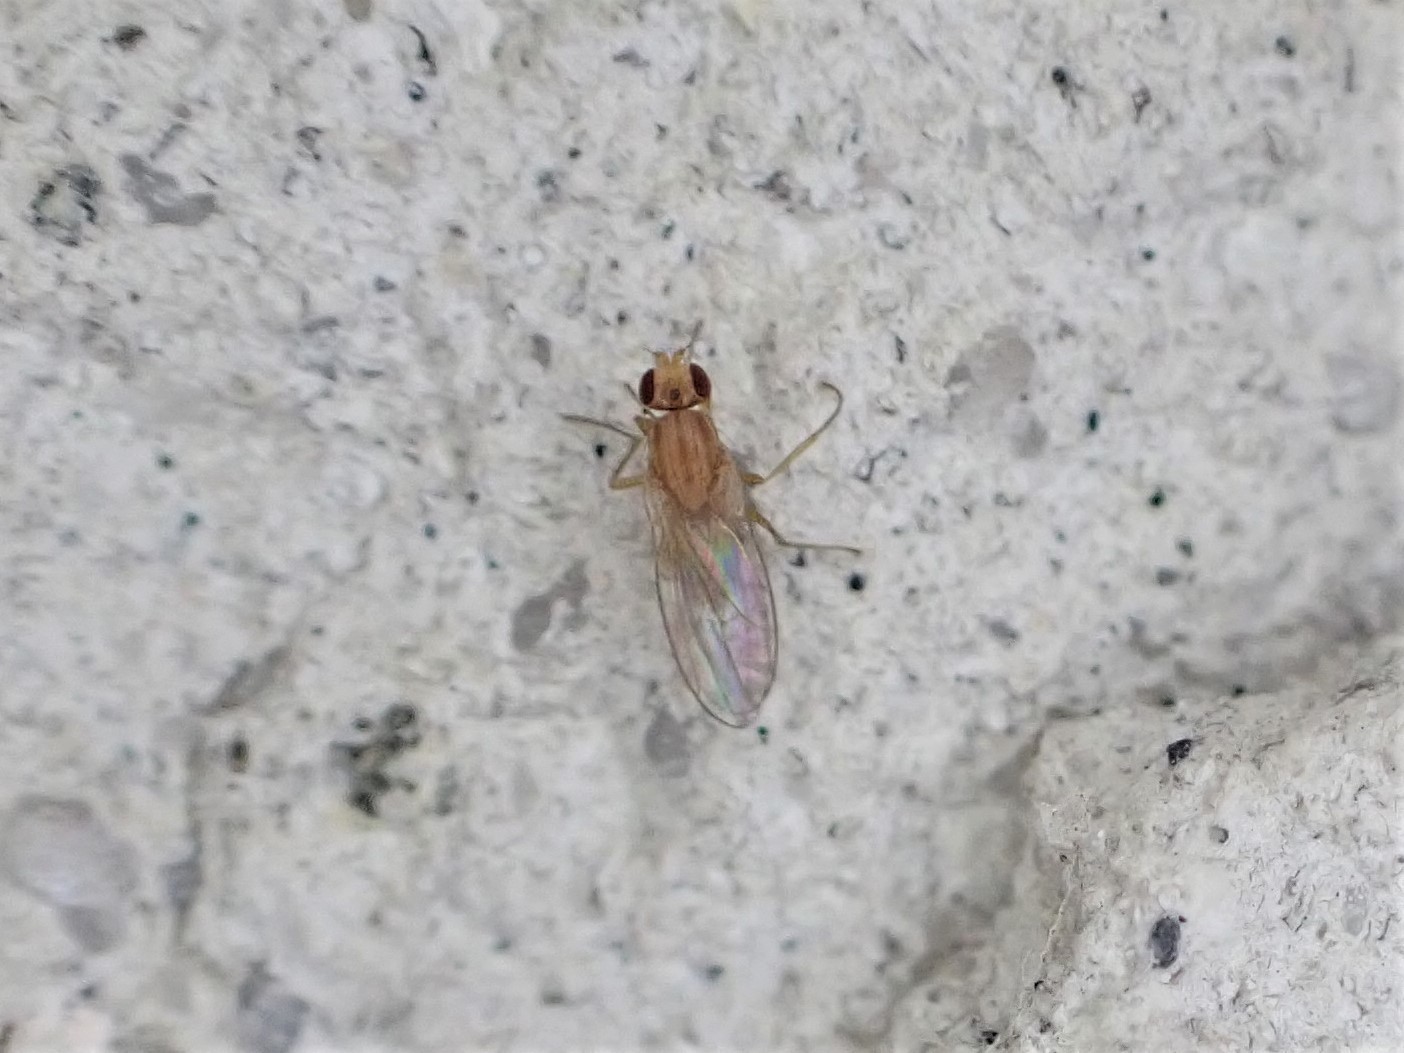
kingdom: Animalia
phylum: Arthropoda
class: Insecta
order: Diptera
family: Lonchopteridae
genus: Lonchoptera
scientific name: Lonchoptera bifurcata
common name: Spear-winged fly
